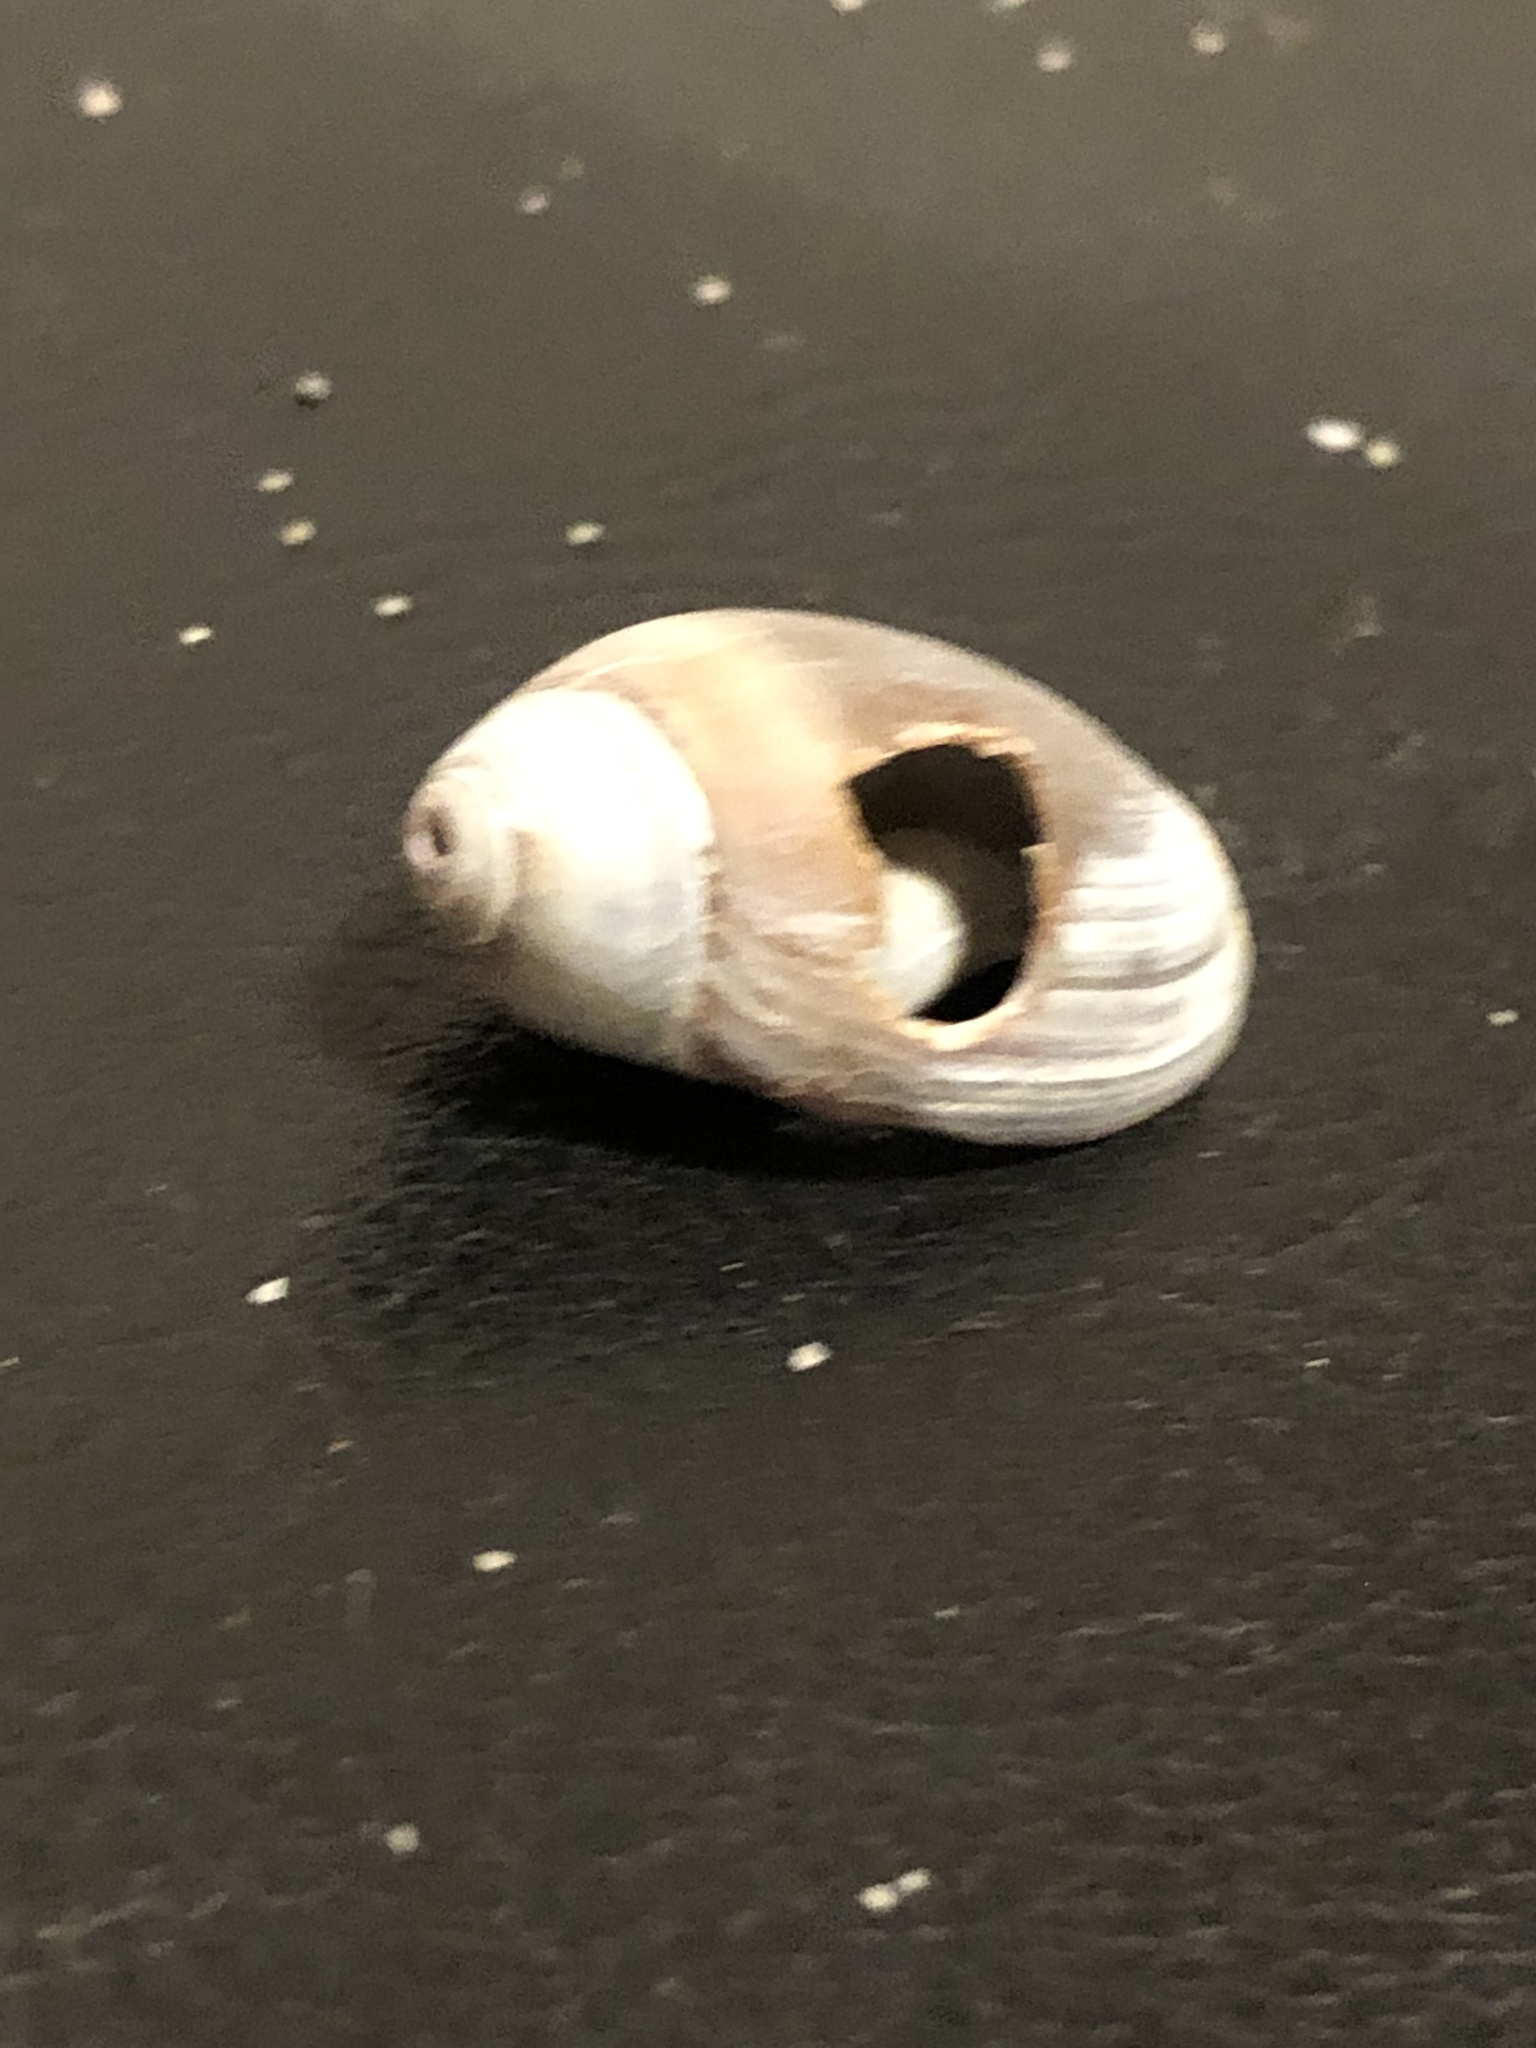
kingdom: Animalia
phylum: Mollusca
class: Gastropoda
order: Neogastropoda
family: Olividae
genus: Callianax
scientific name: Callianax biplicata
